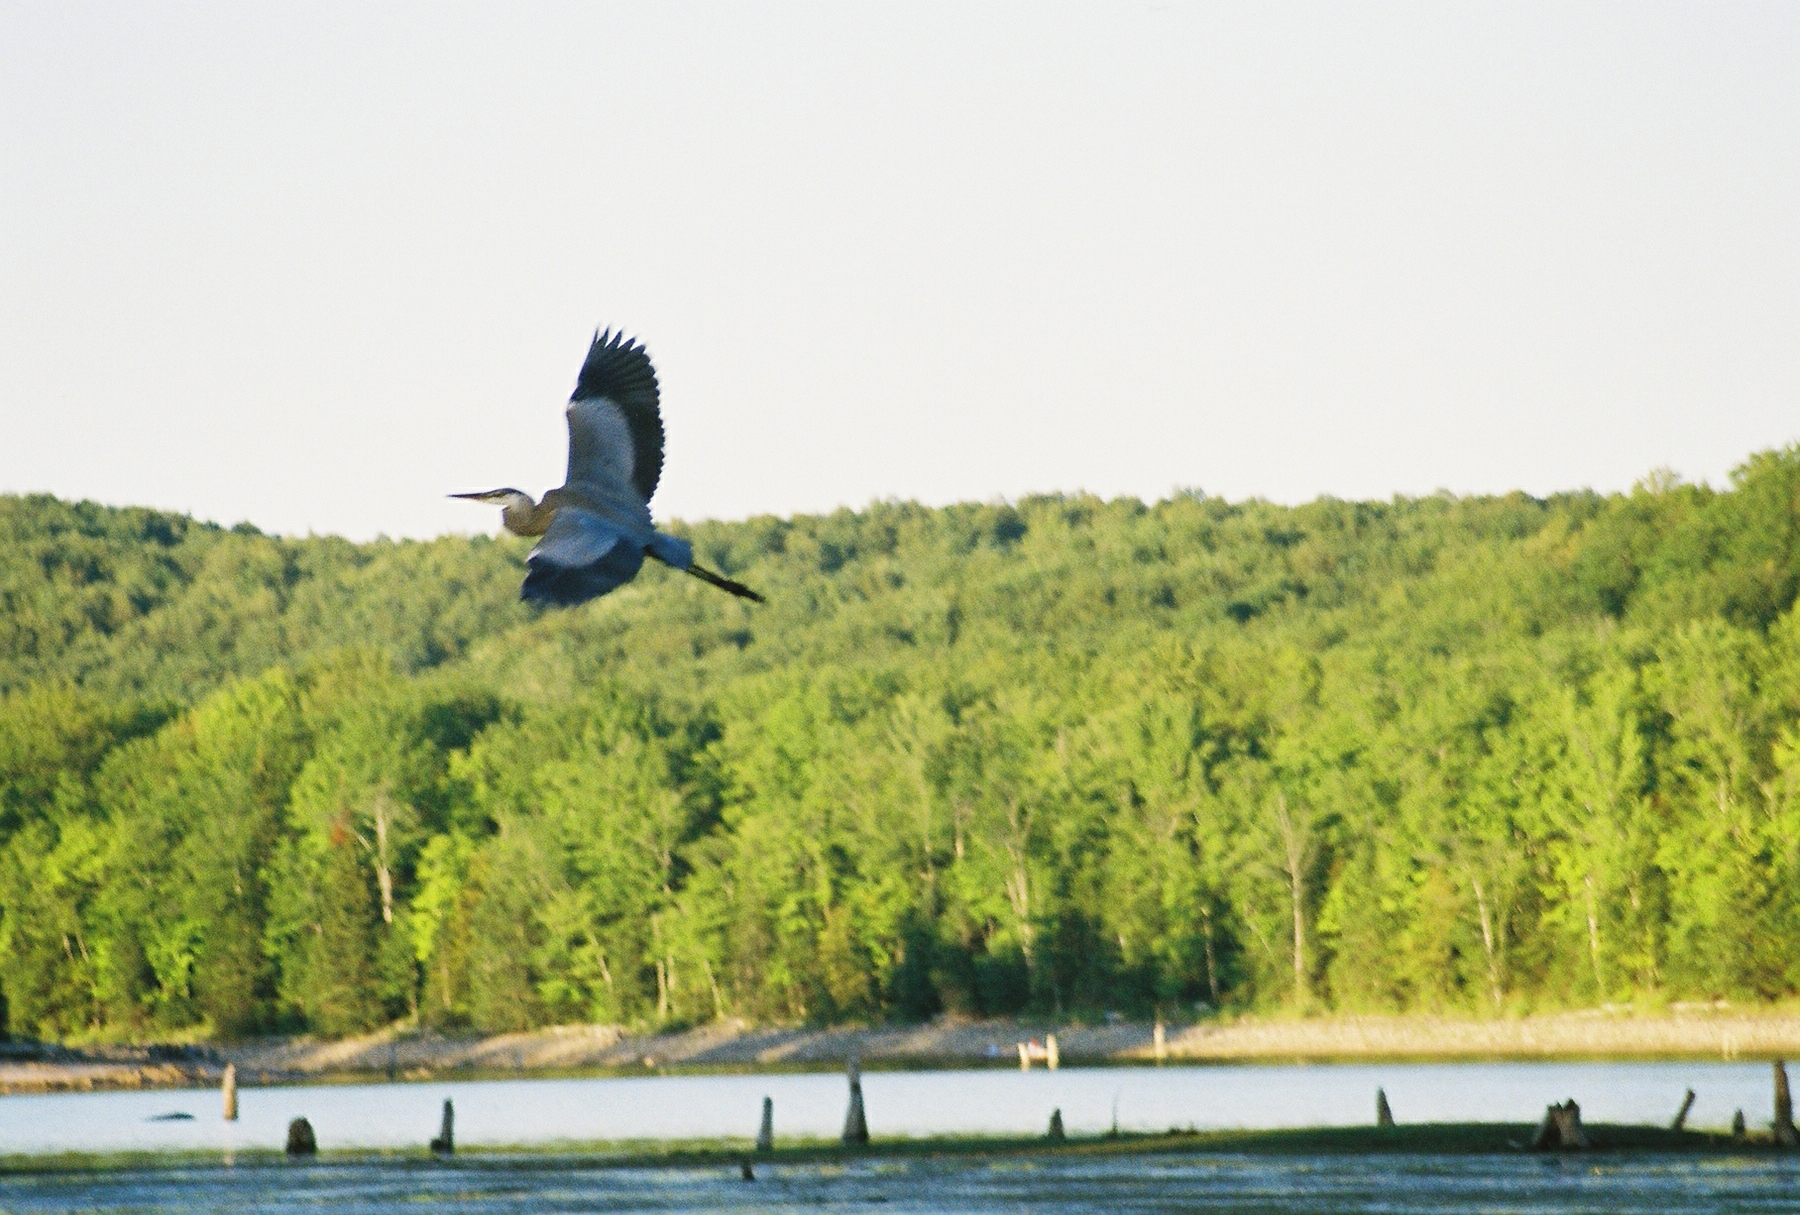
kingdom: Animalia
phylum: Chordata
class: Aves
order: Pelecaniformes
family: Ardeidae
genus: Ardea
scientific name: Ardea herodias
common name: Great blue heron
